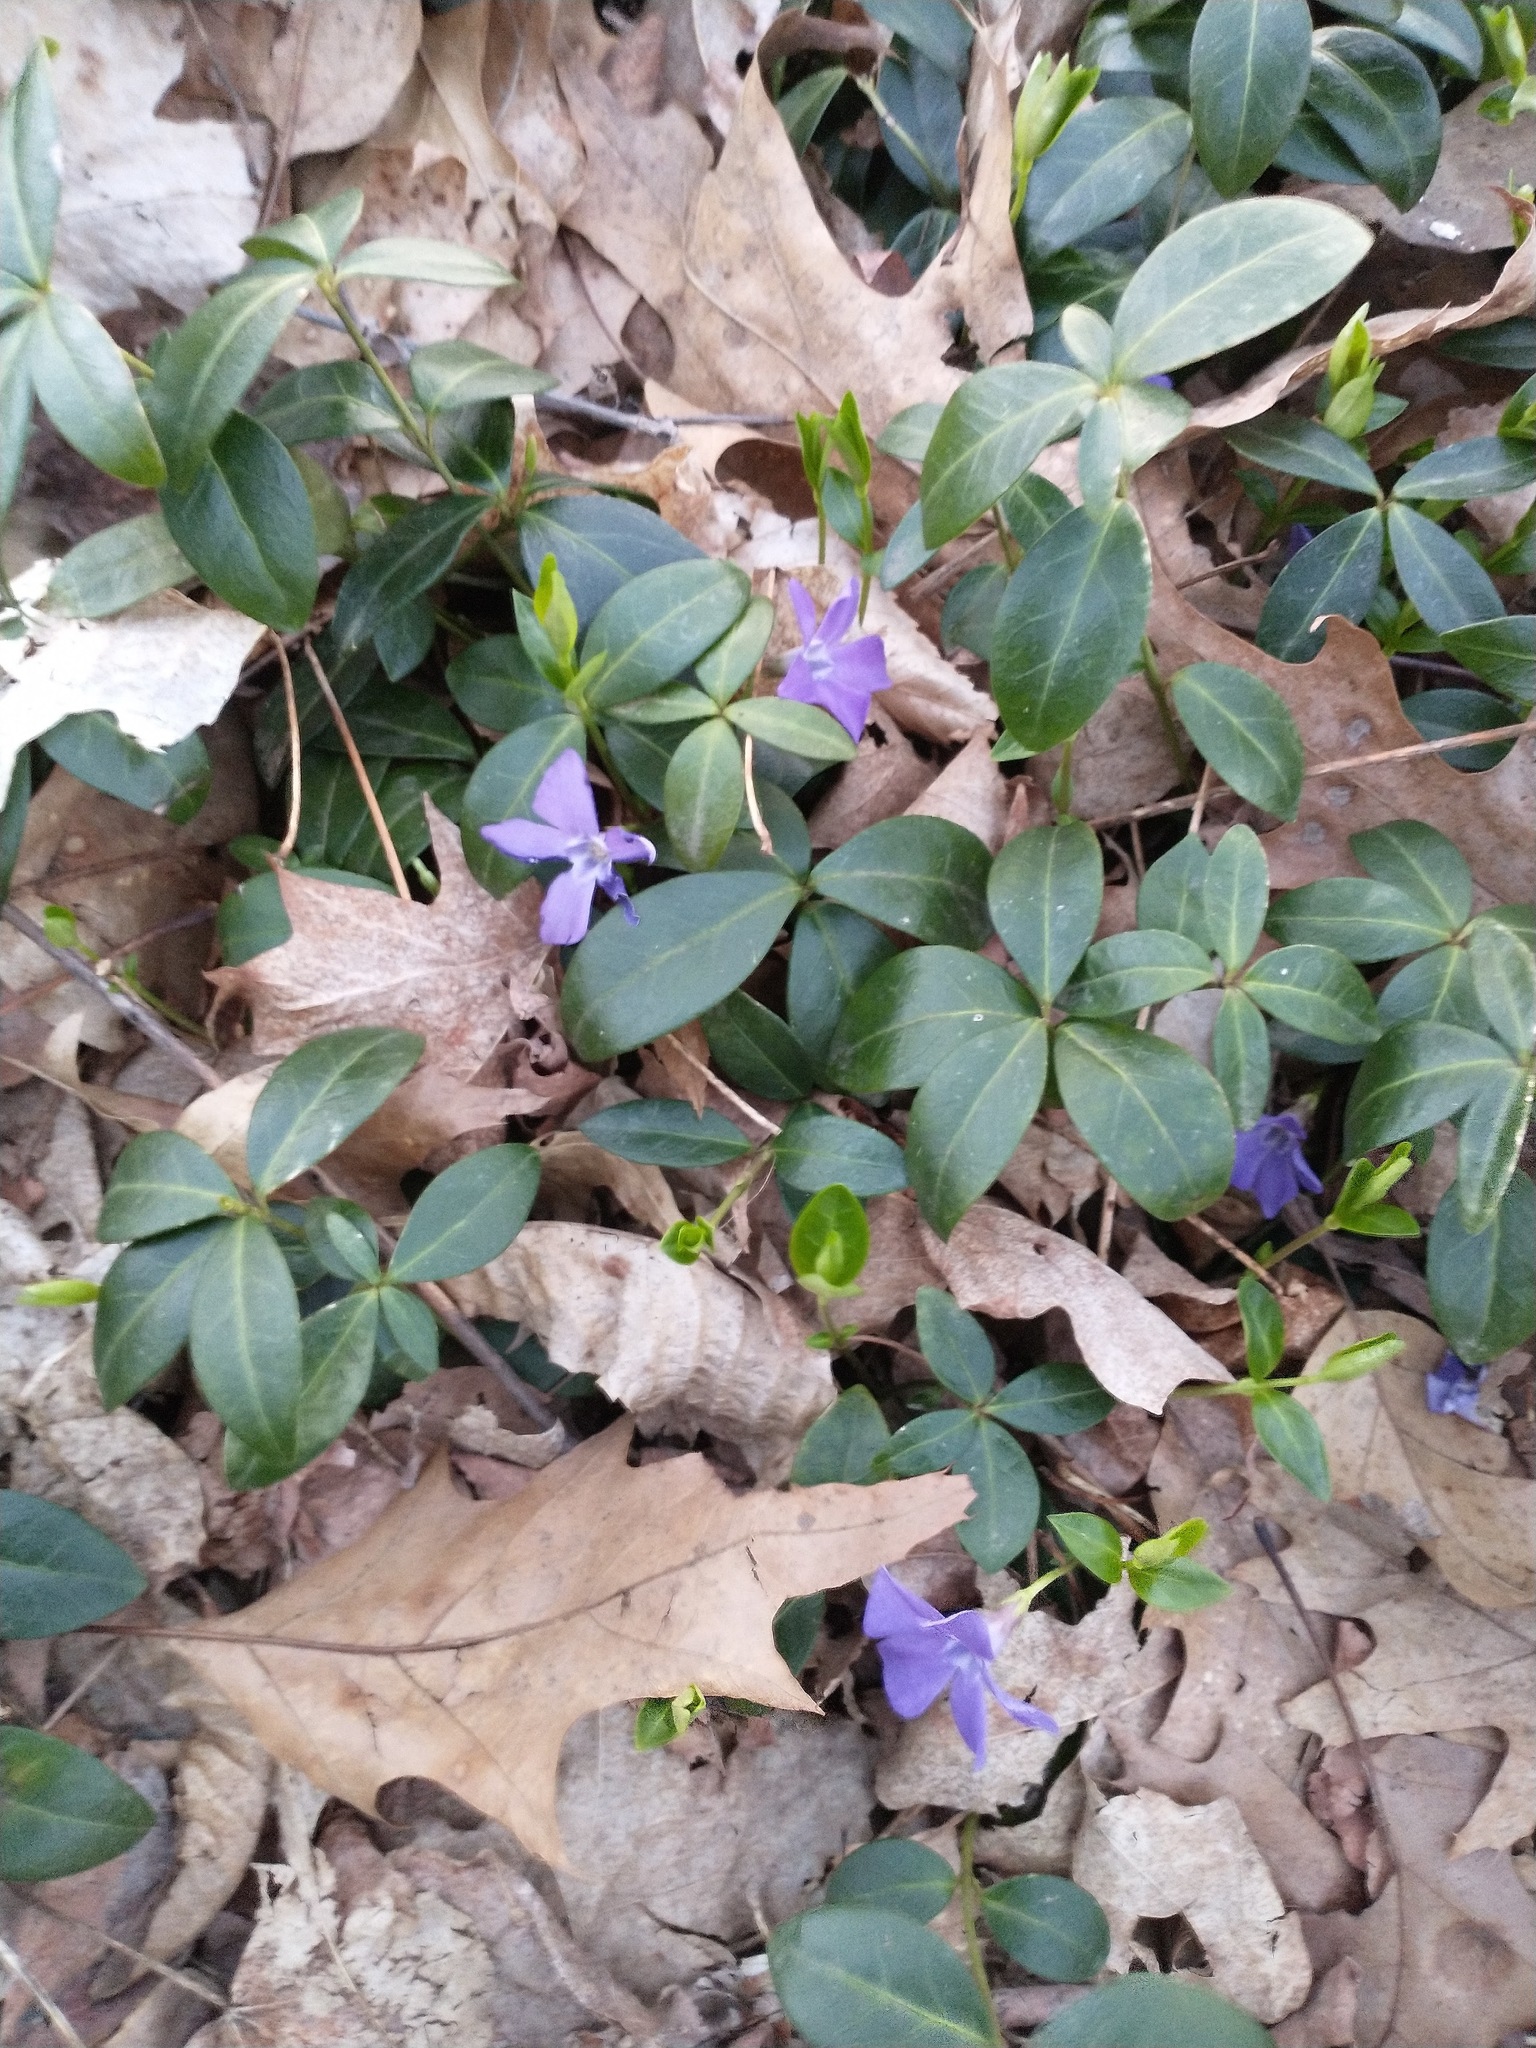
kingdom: Plantae
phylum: Tracheophyta
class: Magnoliopsida
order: Gentianales
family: Apocynaceae
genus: Vinca
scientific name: Vinca minor
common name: Lesser periwinkle
